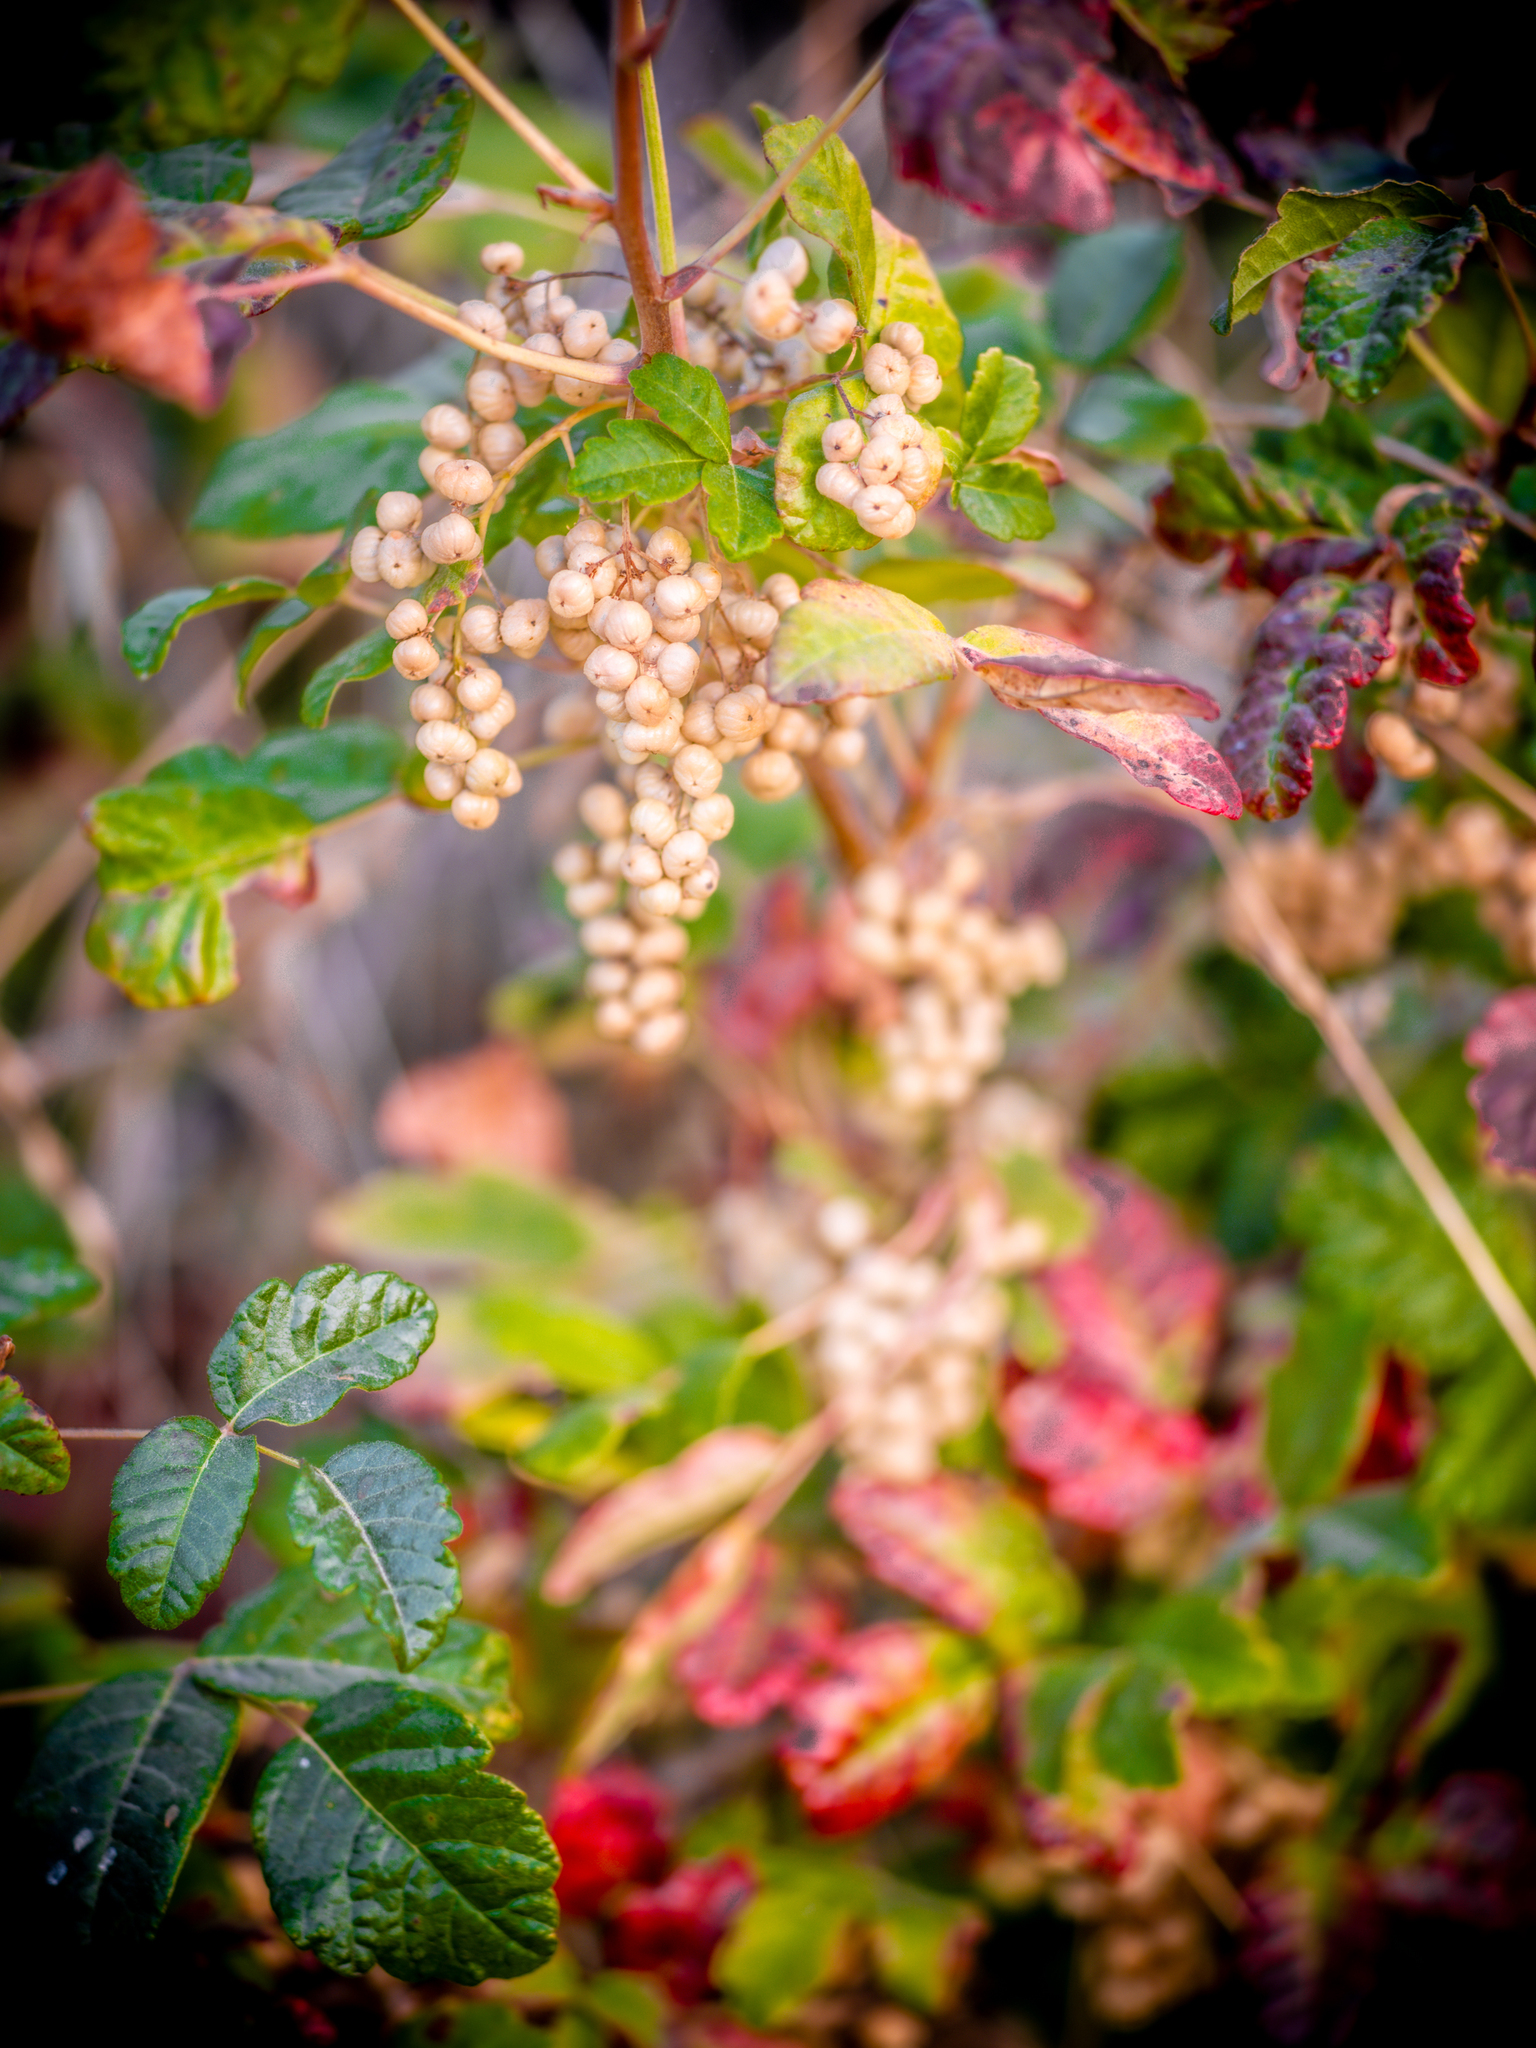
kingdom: Plantae
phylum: Tracheophyta
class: Magnoliopsida
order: Sapindales
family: Anacardiaceae
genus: Toxicodendron
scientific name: Toxicodendron diversilobum
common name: Pacific poison-oak
